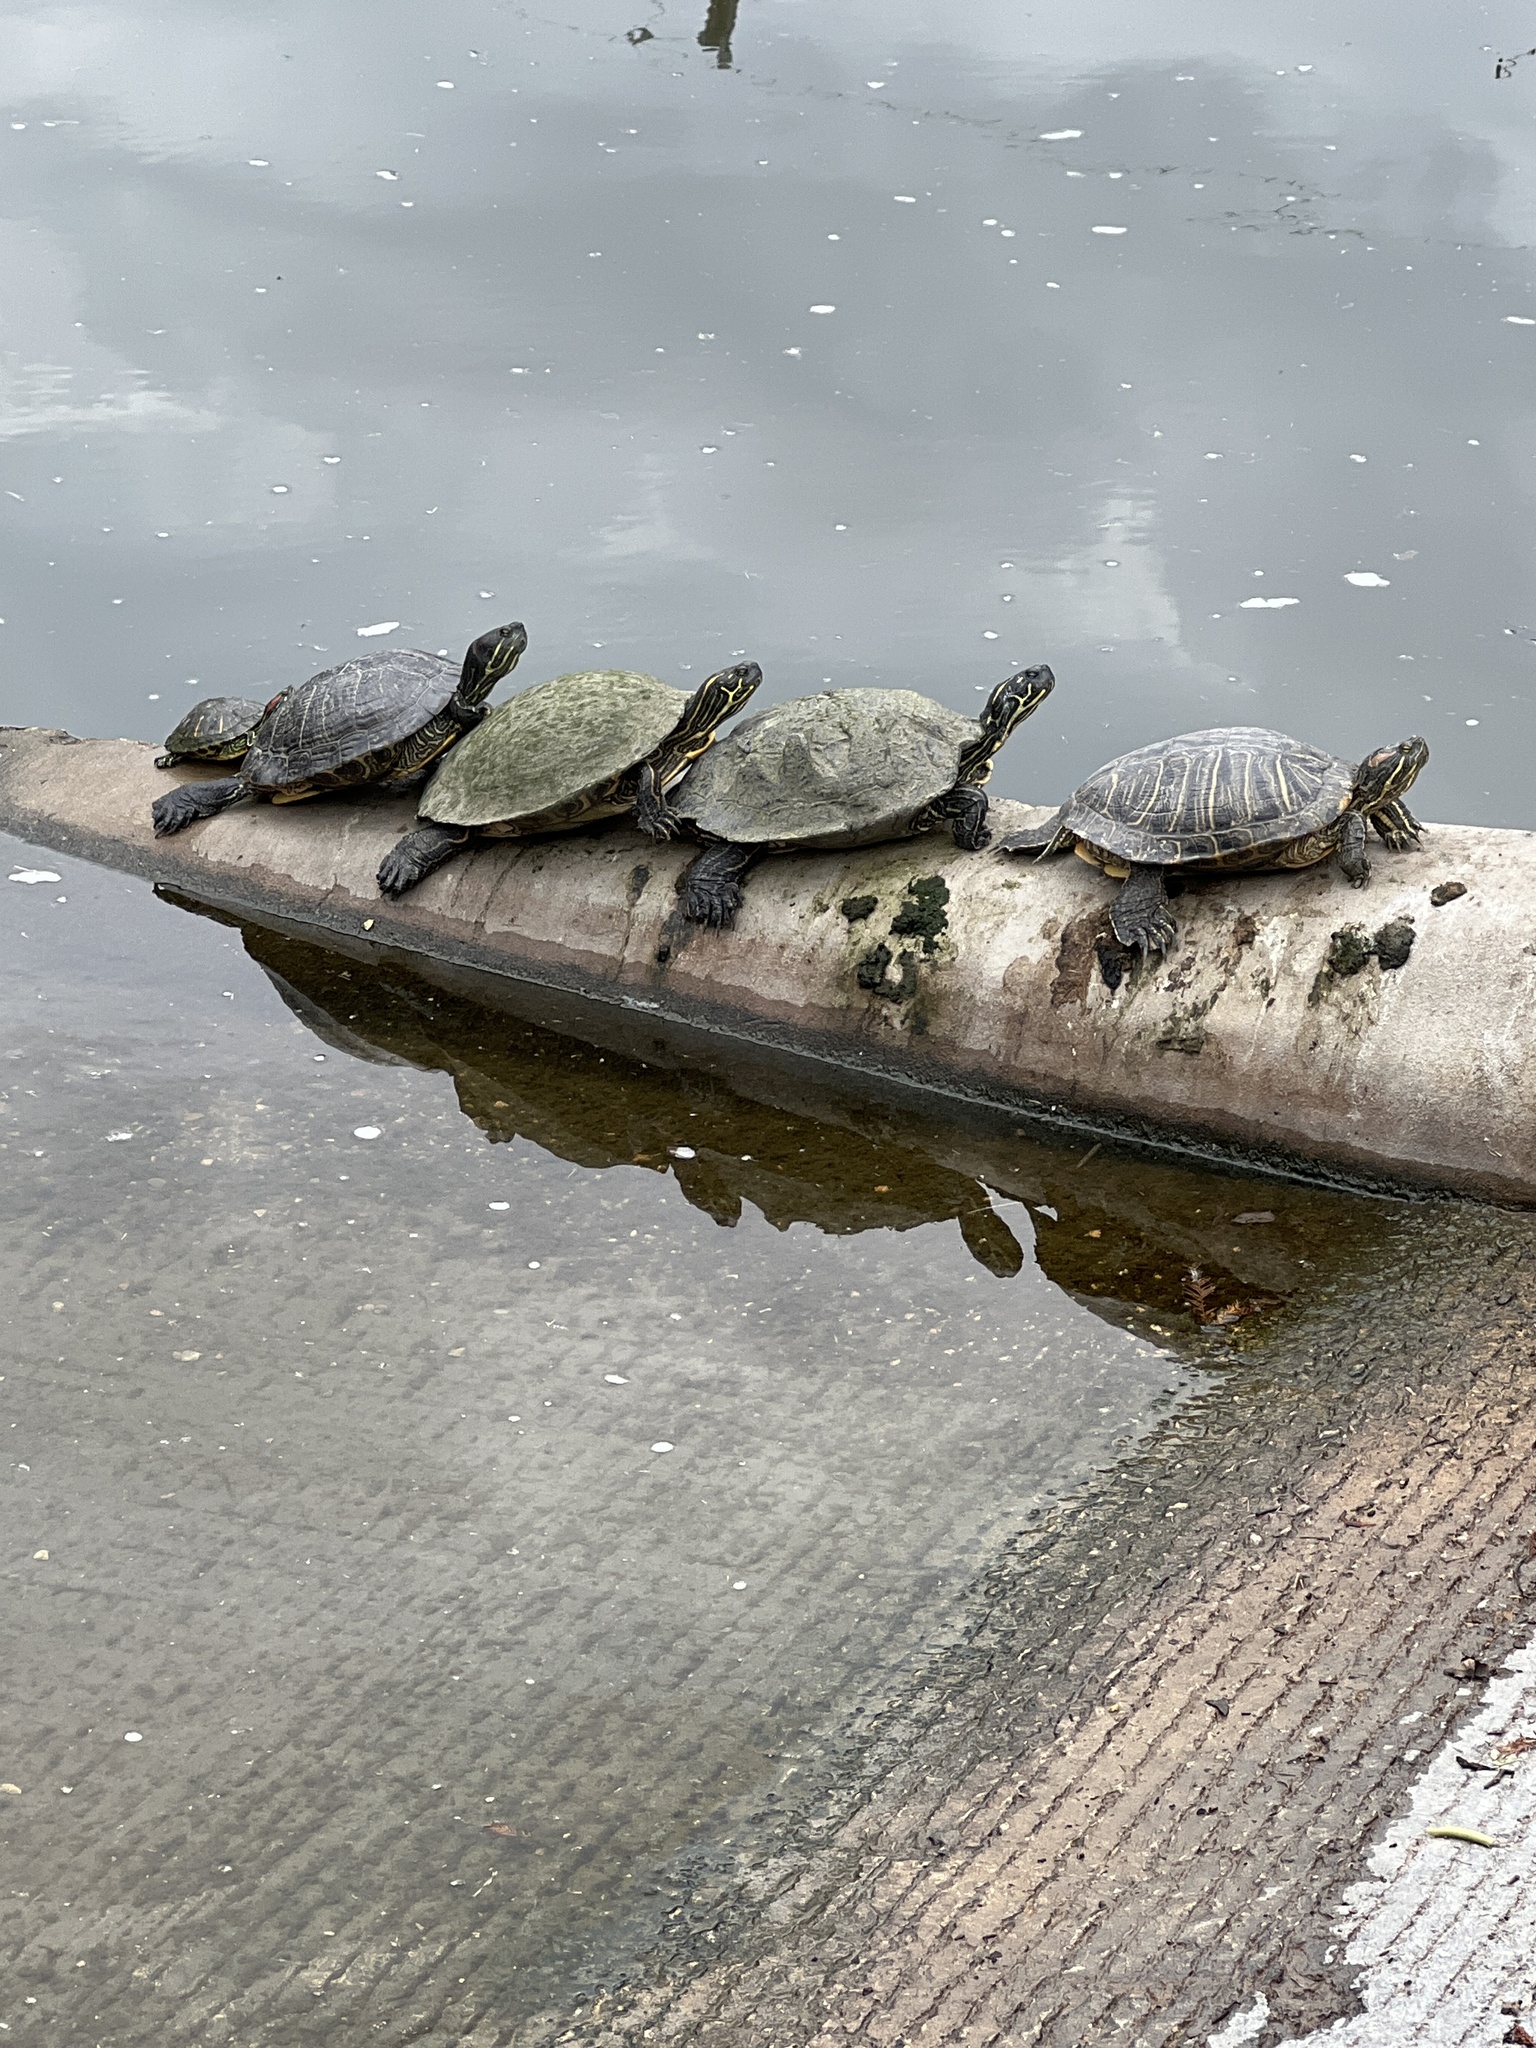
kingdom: Animalia
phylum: Chordata
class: Testudines
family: Emydidae
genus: Pseudemys
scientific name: Pseudemys texana
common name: Texas river cooter
